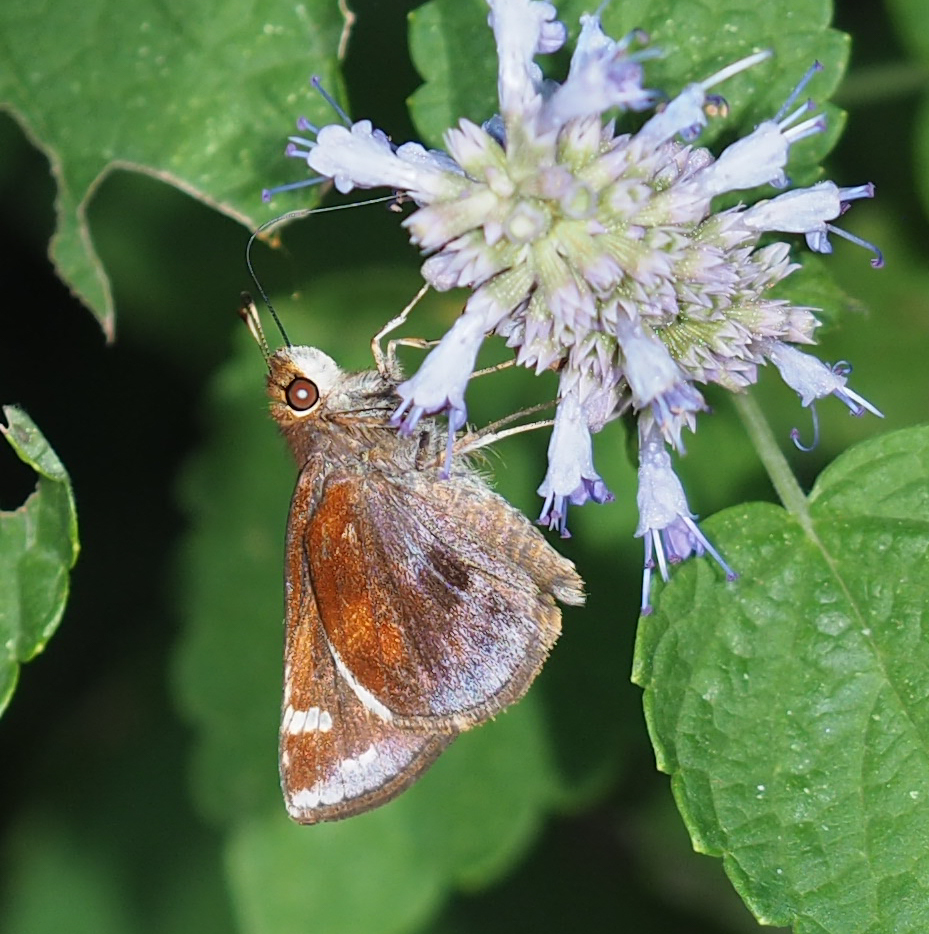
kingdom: Animalia
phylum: Arthropoda
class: Insecta
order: Lepidoptera
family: Hesperiidae
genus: Lon
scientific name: Lon zabulon
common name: Zabulon skipper
